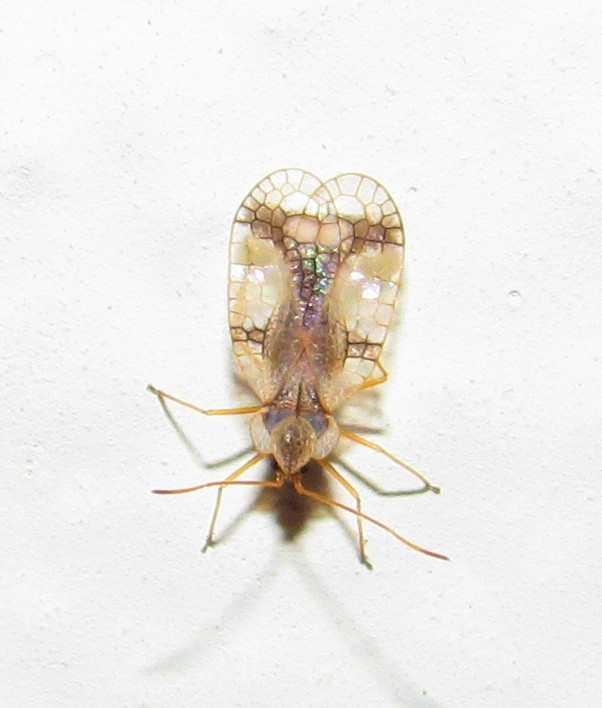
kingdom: Animalia
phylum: Arthropoda
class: Insecta
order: Hemiptera
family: Tingidae
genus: Stephanitis
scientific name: Stephanitis pyrioides
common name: Azalea lace bug
